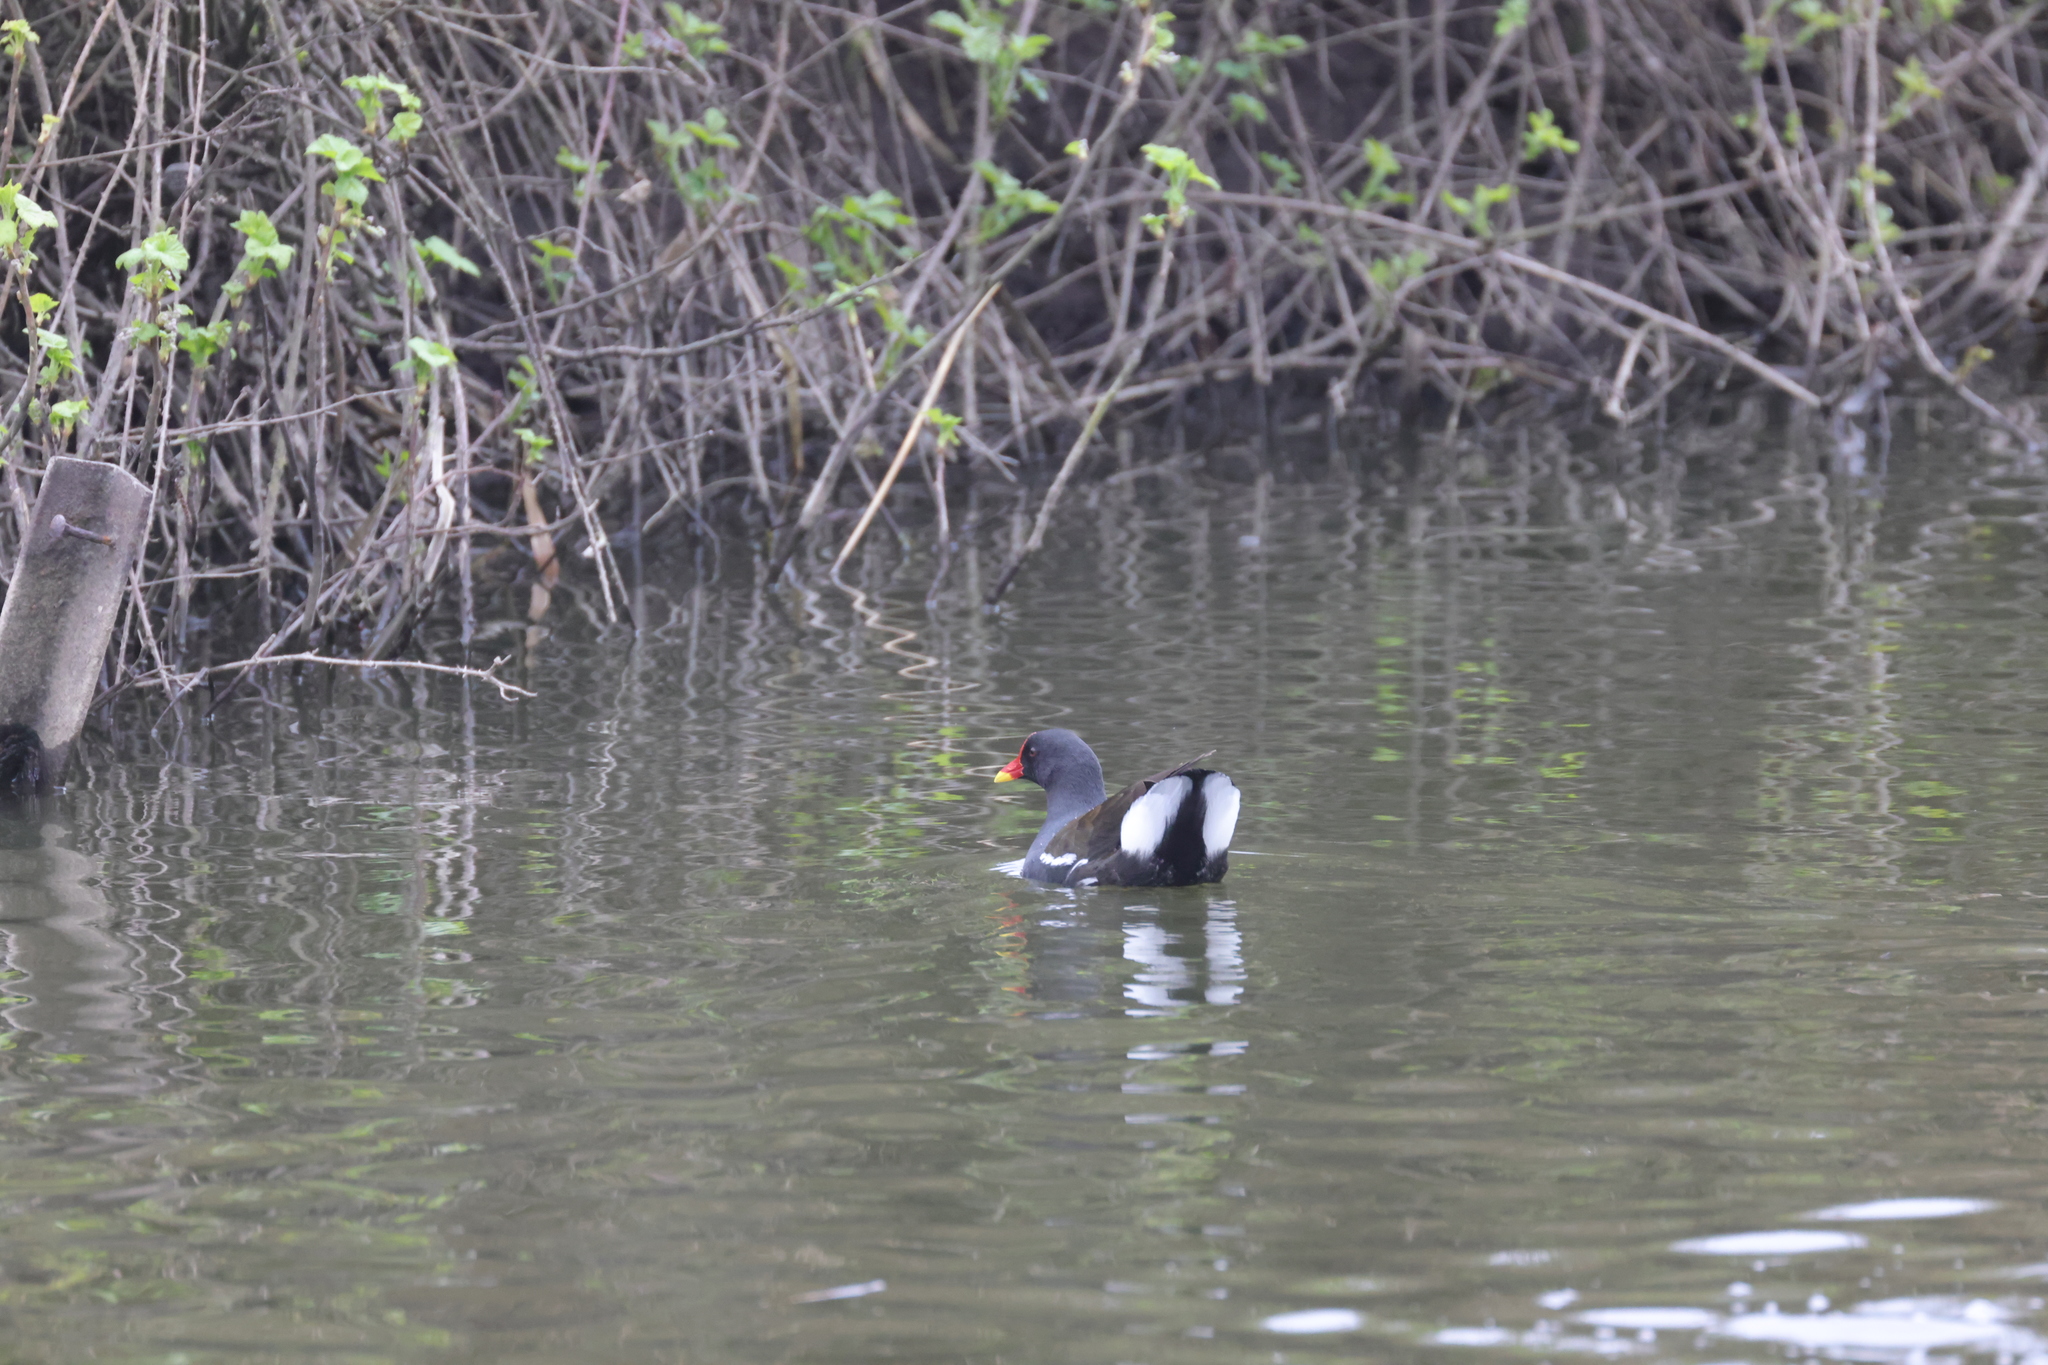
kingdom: Animalia
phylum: Chordata
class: Aves
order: Gruiformes
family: Rallidae
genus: Gallinula
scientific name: Gallinula chloropus
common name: Common moorhen
